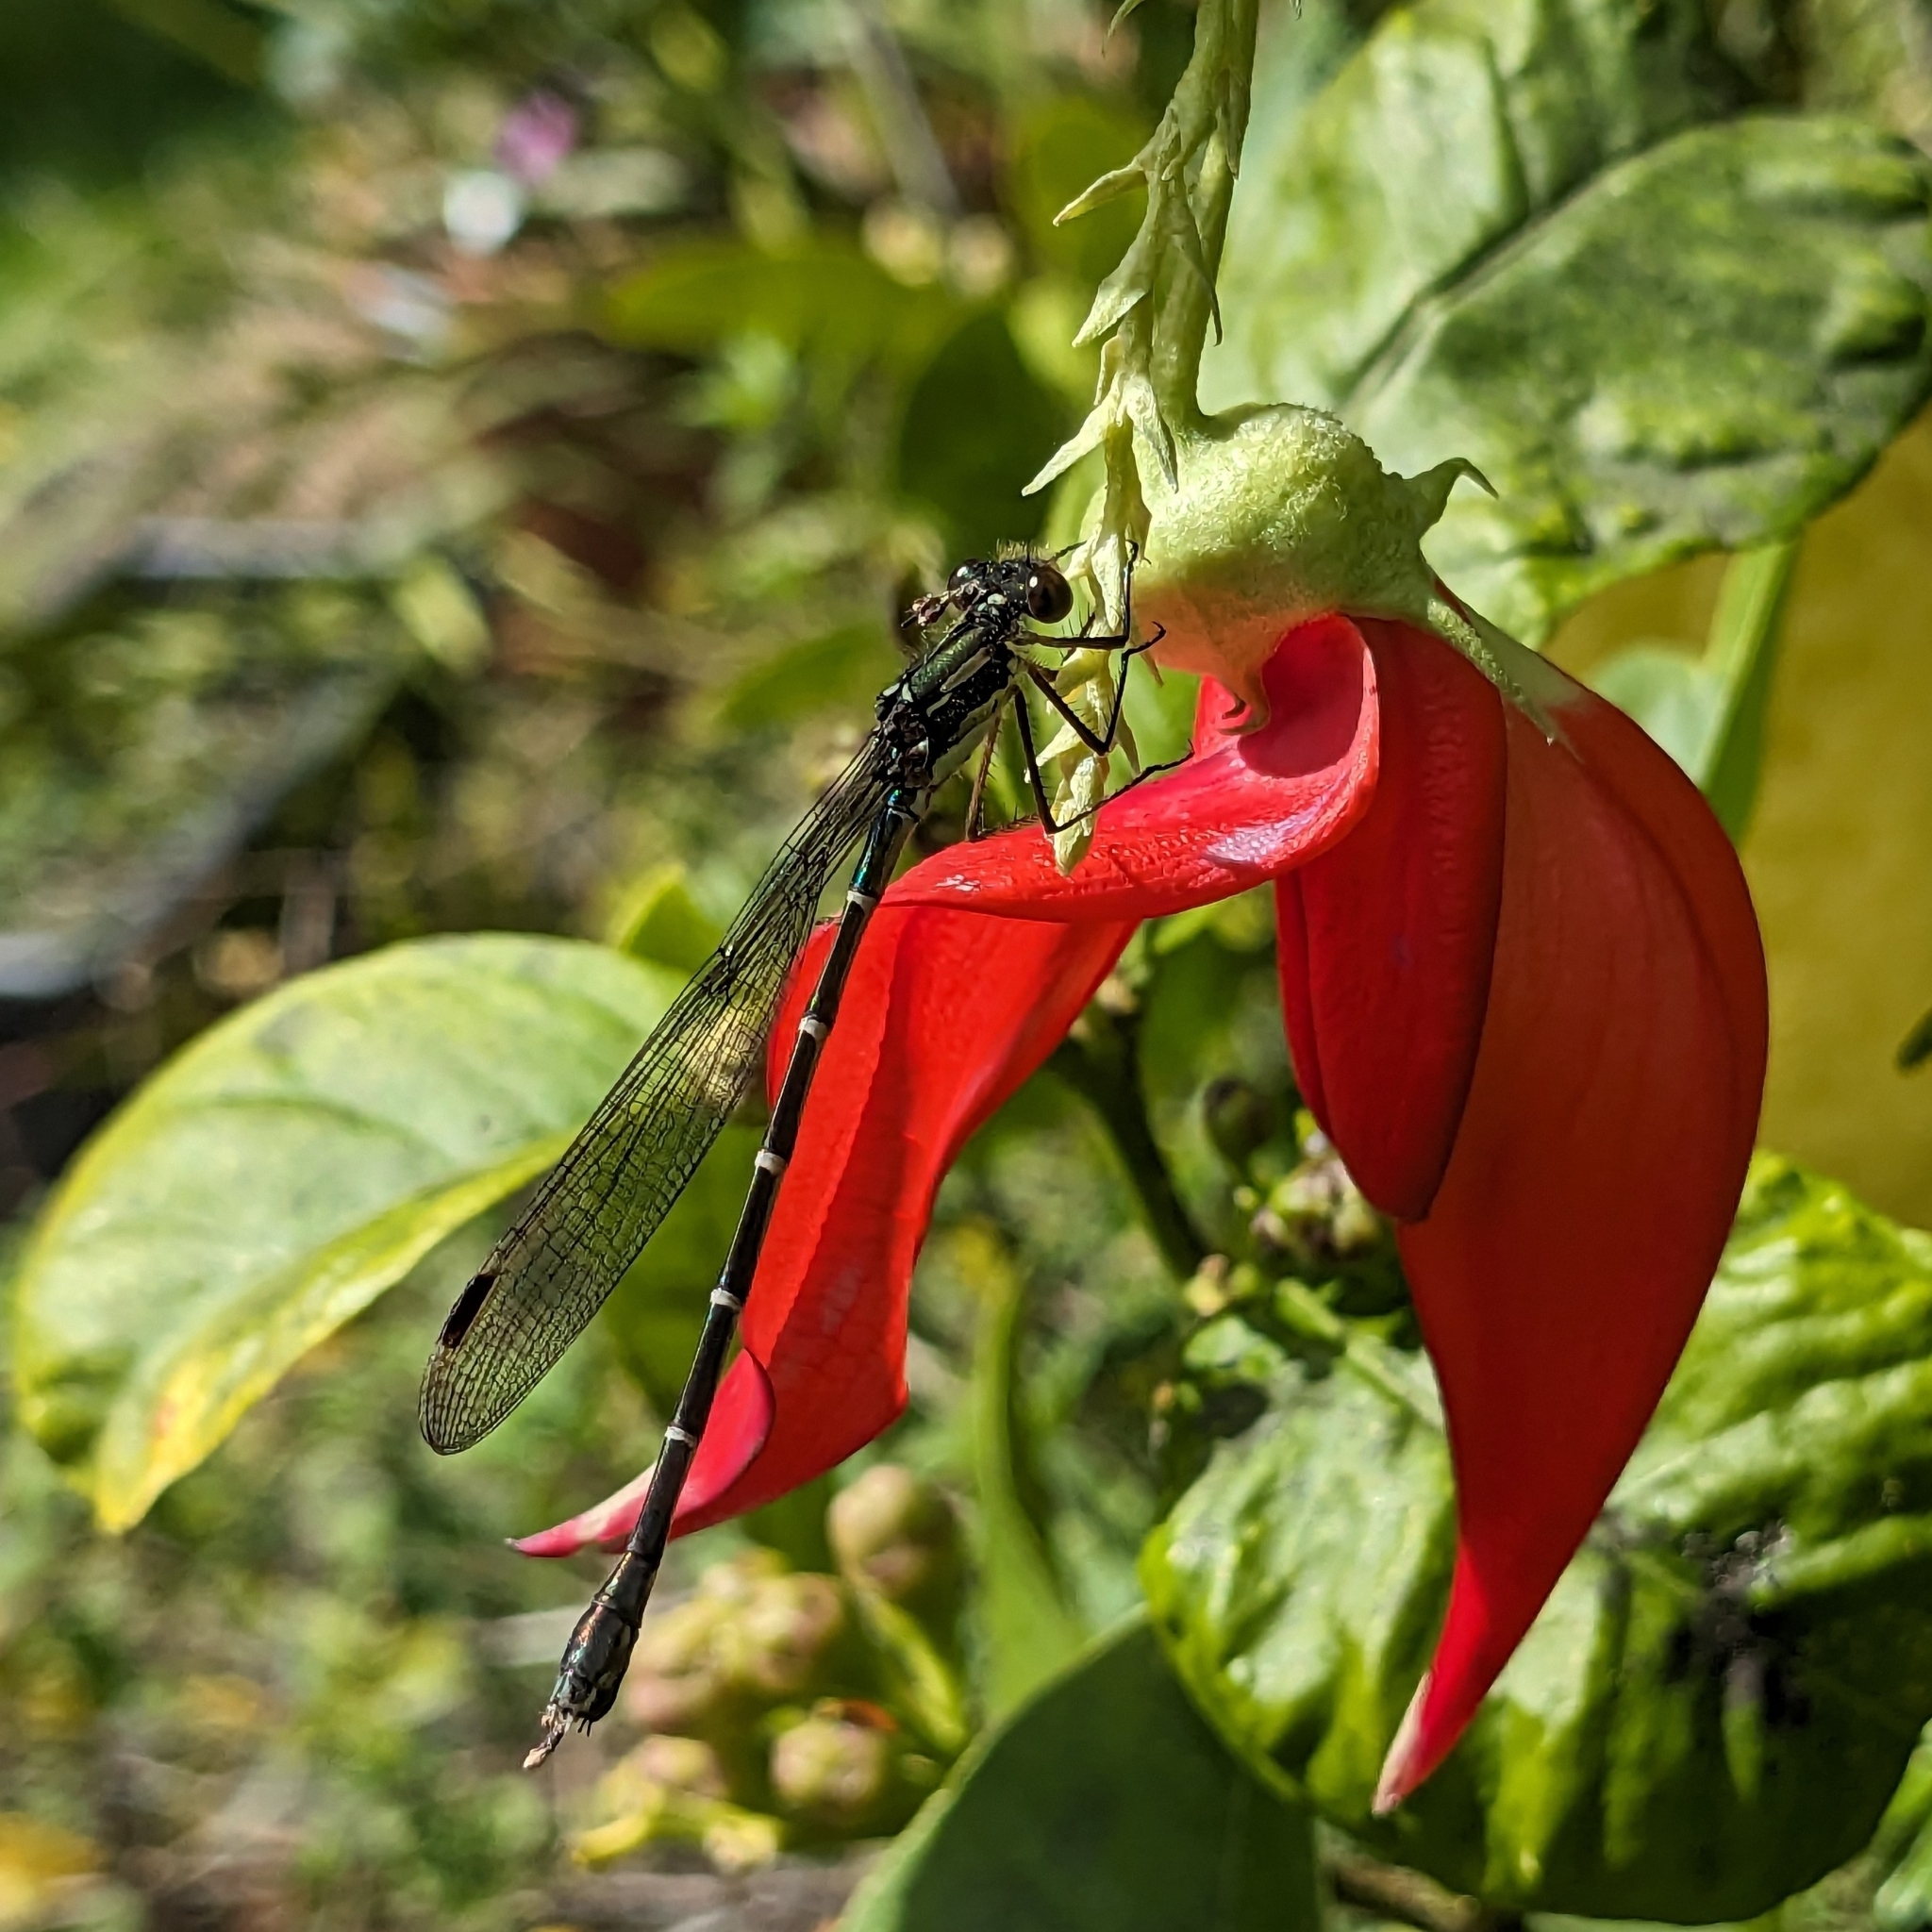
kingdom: Animalia
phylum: Arthropoda
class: Insecta
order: Odonata
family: Lestidae
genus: Austrolestes
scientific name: Austrolestes colensonis
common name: Blue damselfly
